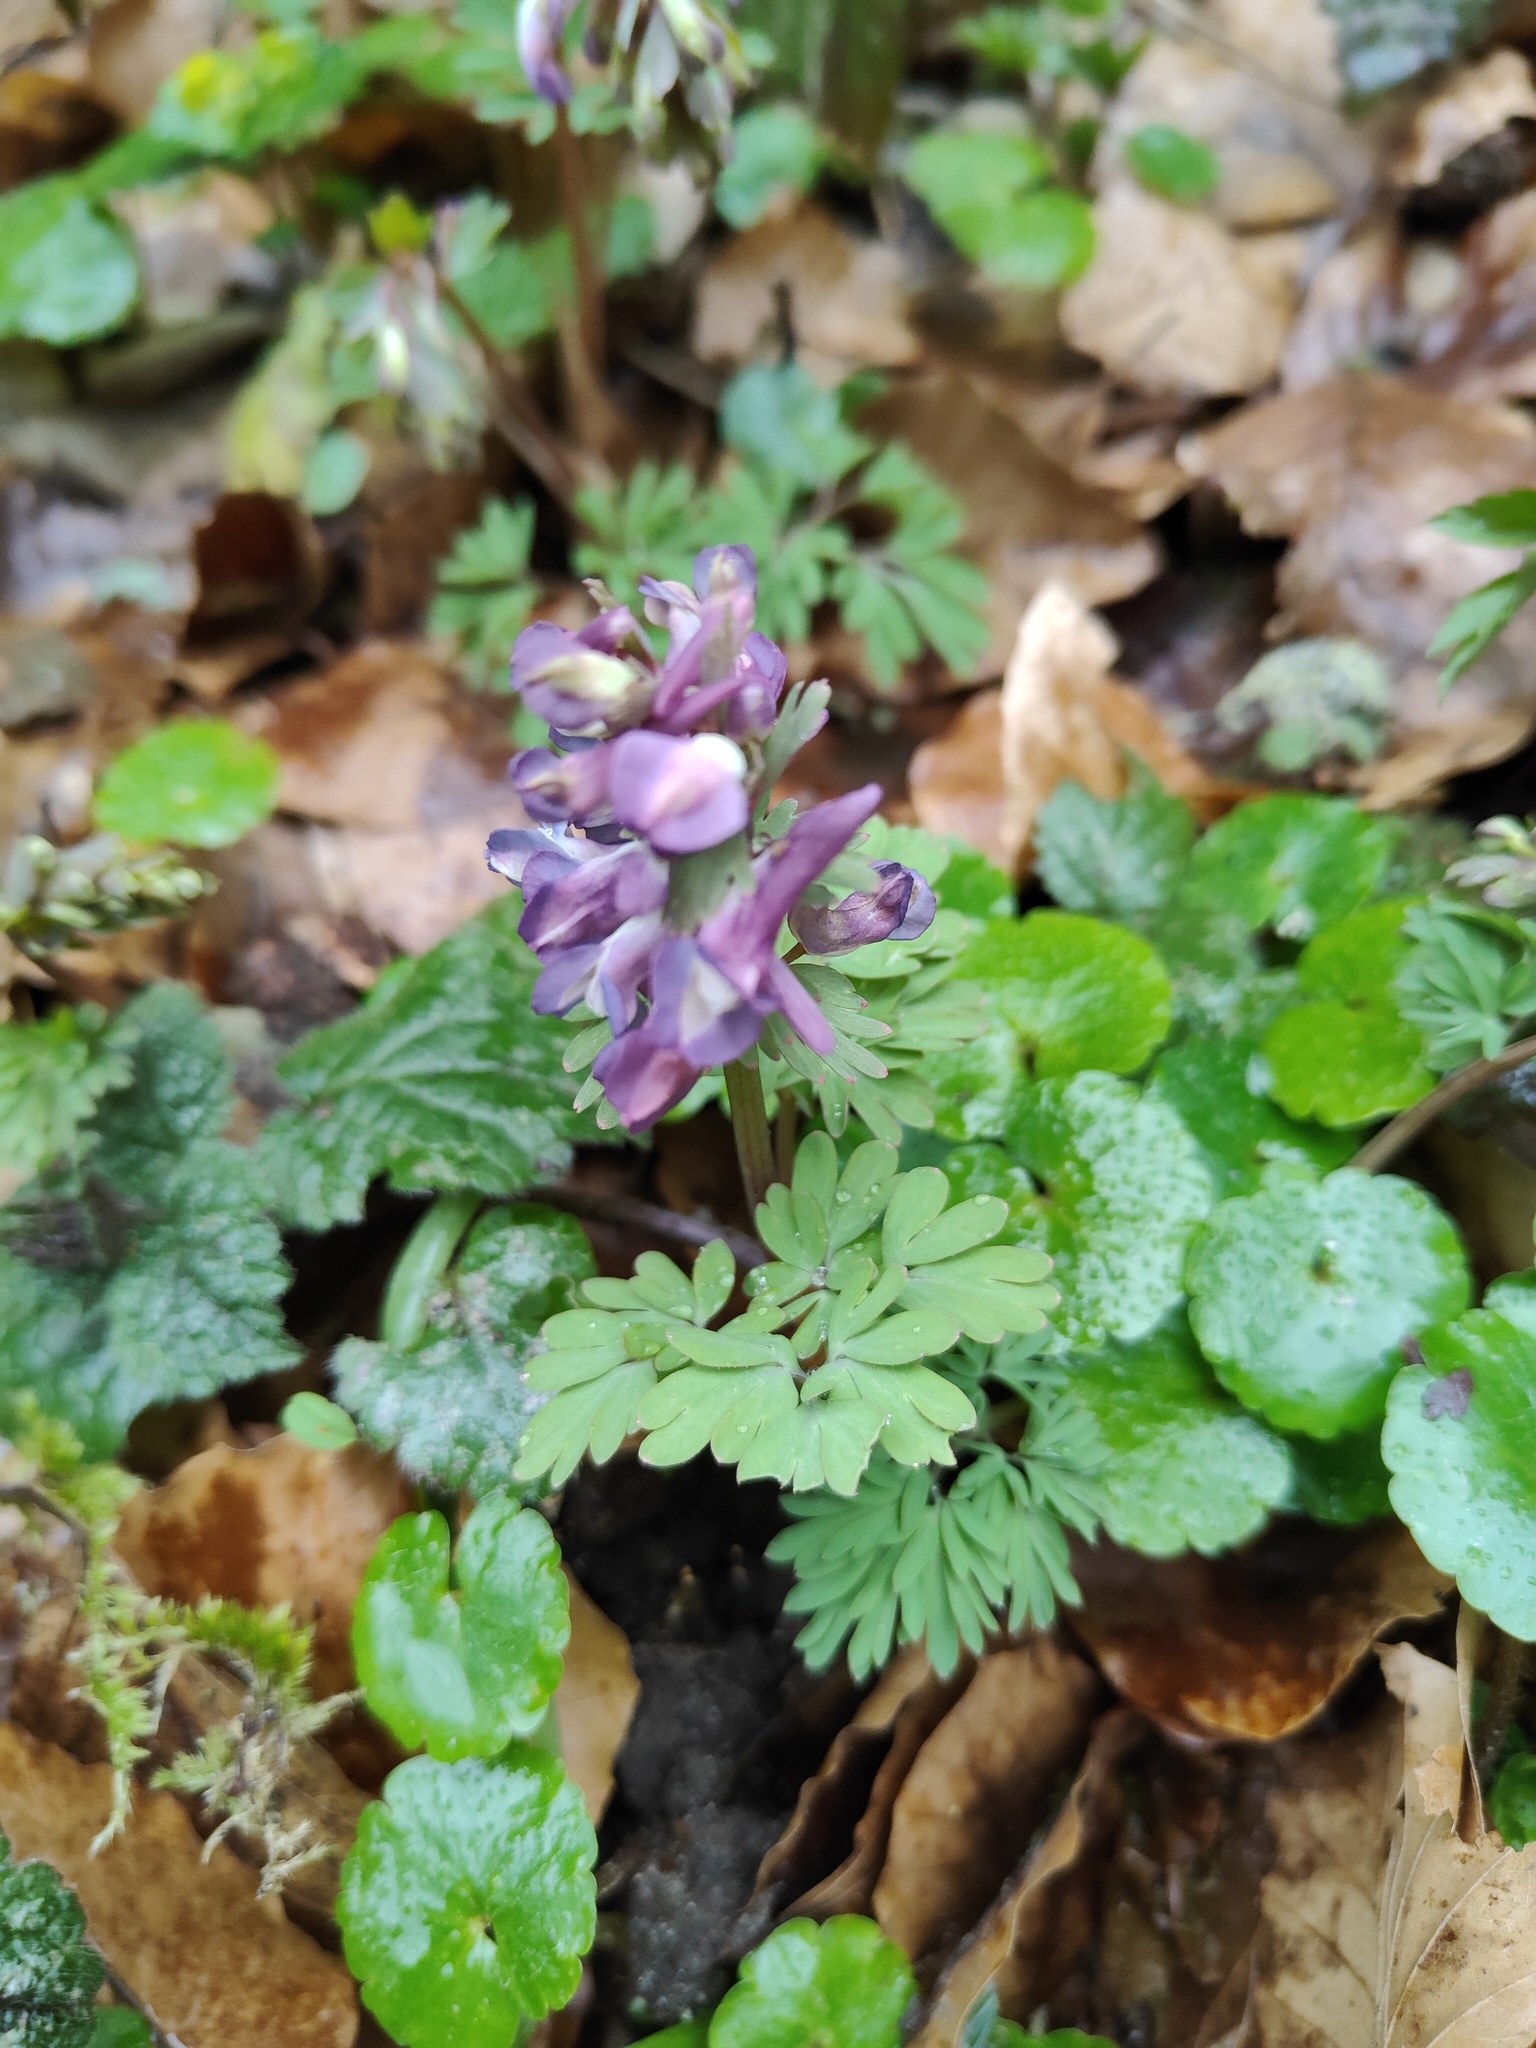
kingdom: Plantae
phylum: Tracheophyta
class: Magnoliopsida
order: Ranunculales
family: Papaveraceae
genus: Corydalis
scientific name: Corydalis solida
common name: Bird-in-a-bush
